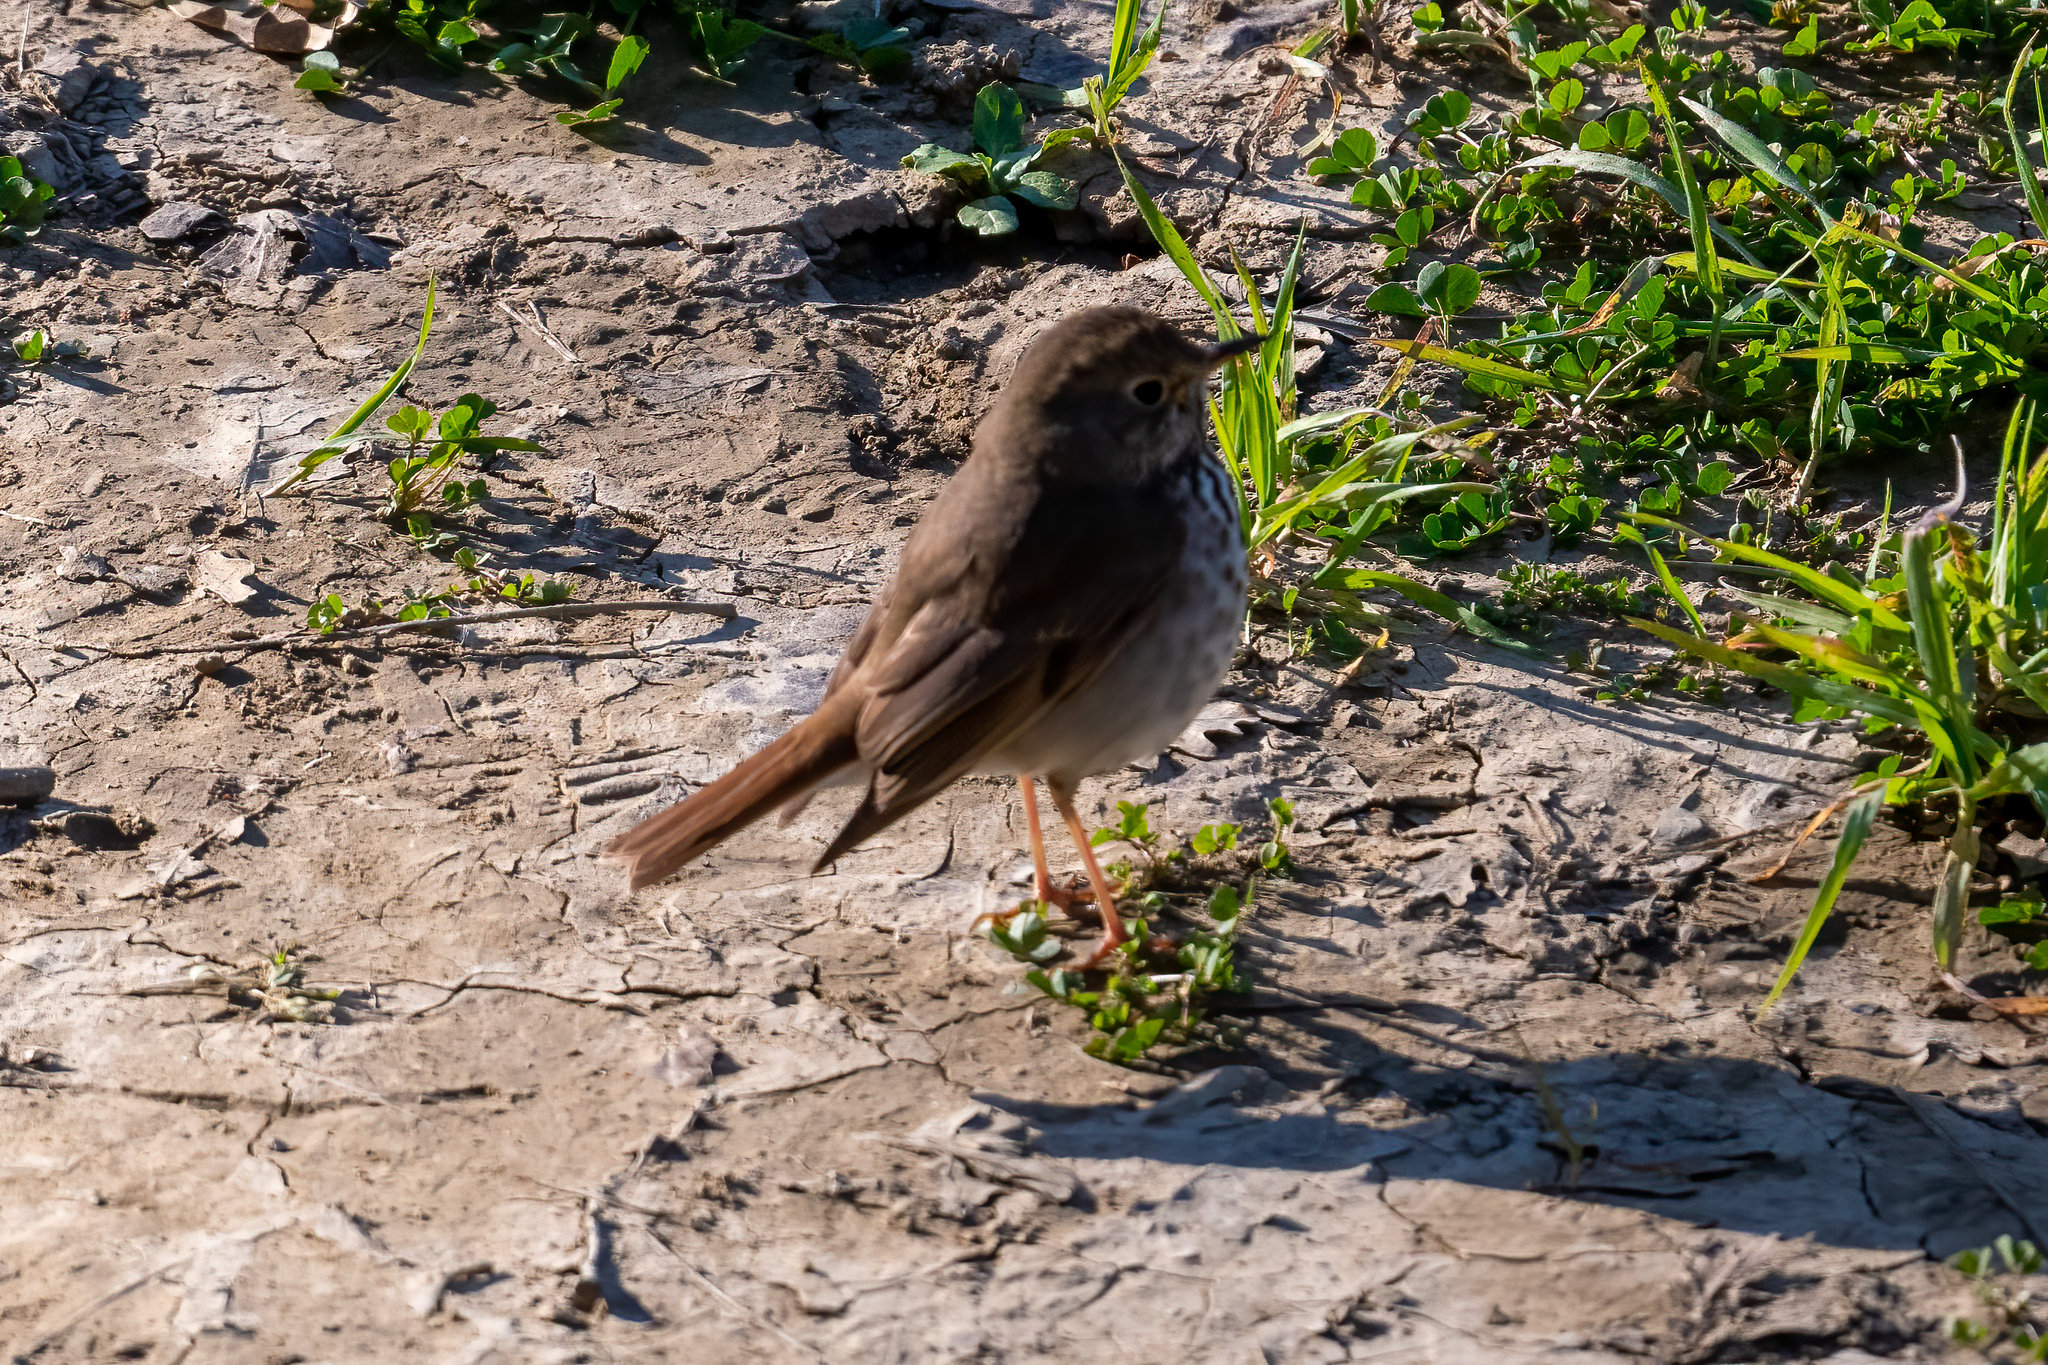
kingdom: Animalia
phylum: Chordata
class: Aves
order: Passeriformes
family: Turdidae
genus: Catharus
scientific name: Catharus guttatus
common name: Hermit thrush
